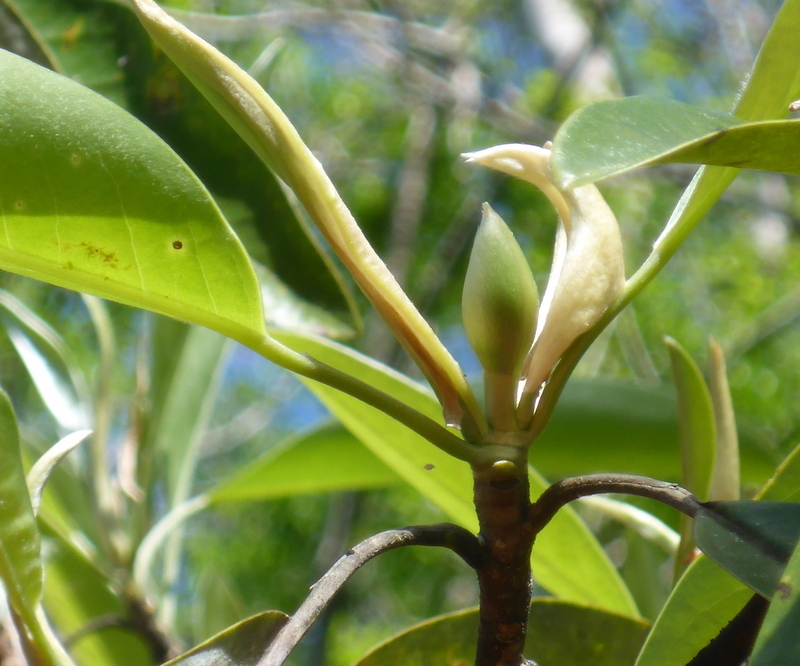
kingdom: Plantae
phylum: Tracheophyta
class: Magnoliopsida
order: Magnoliales
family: Magnoliaceae
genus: Magnolia
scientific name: Magnolia virginiana
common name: Swamp bay
